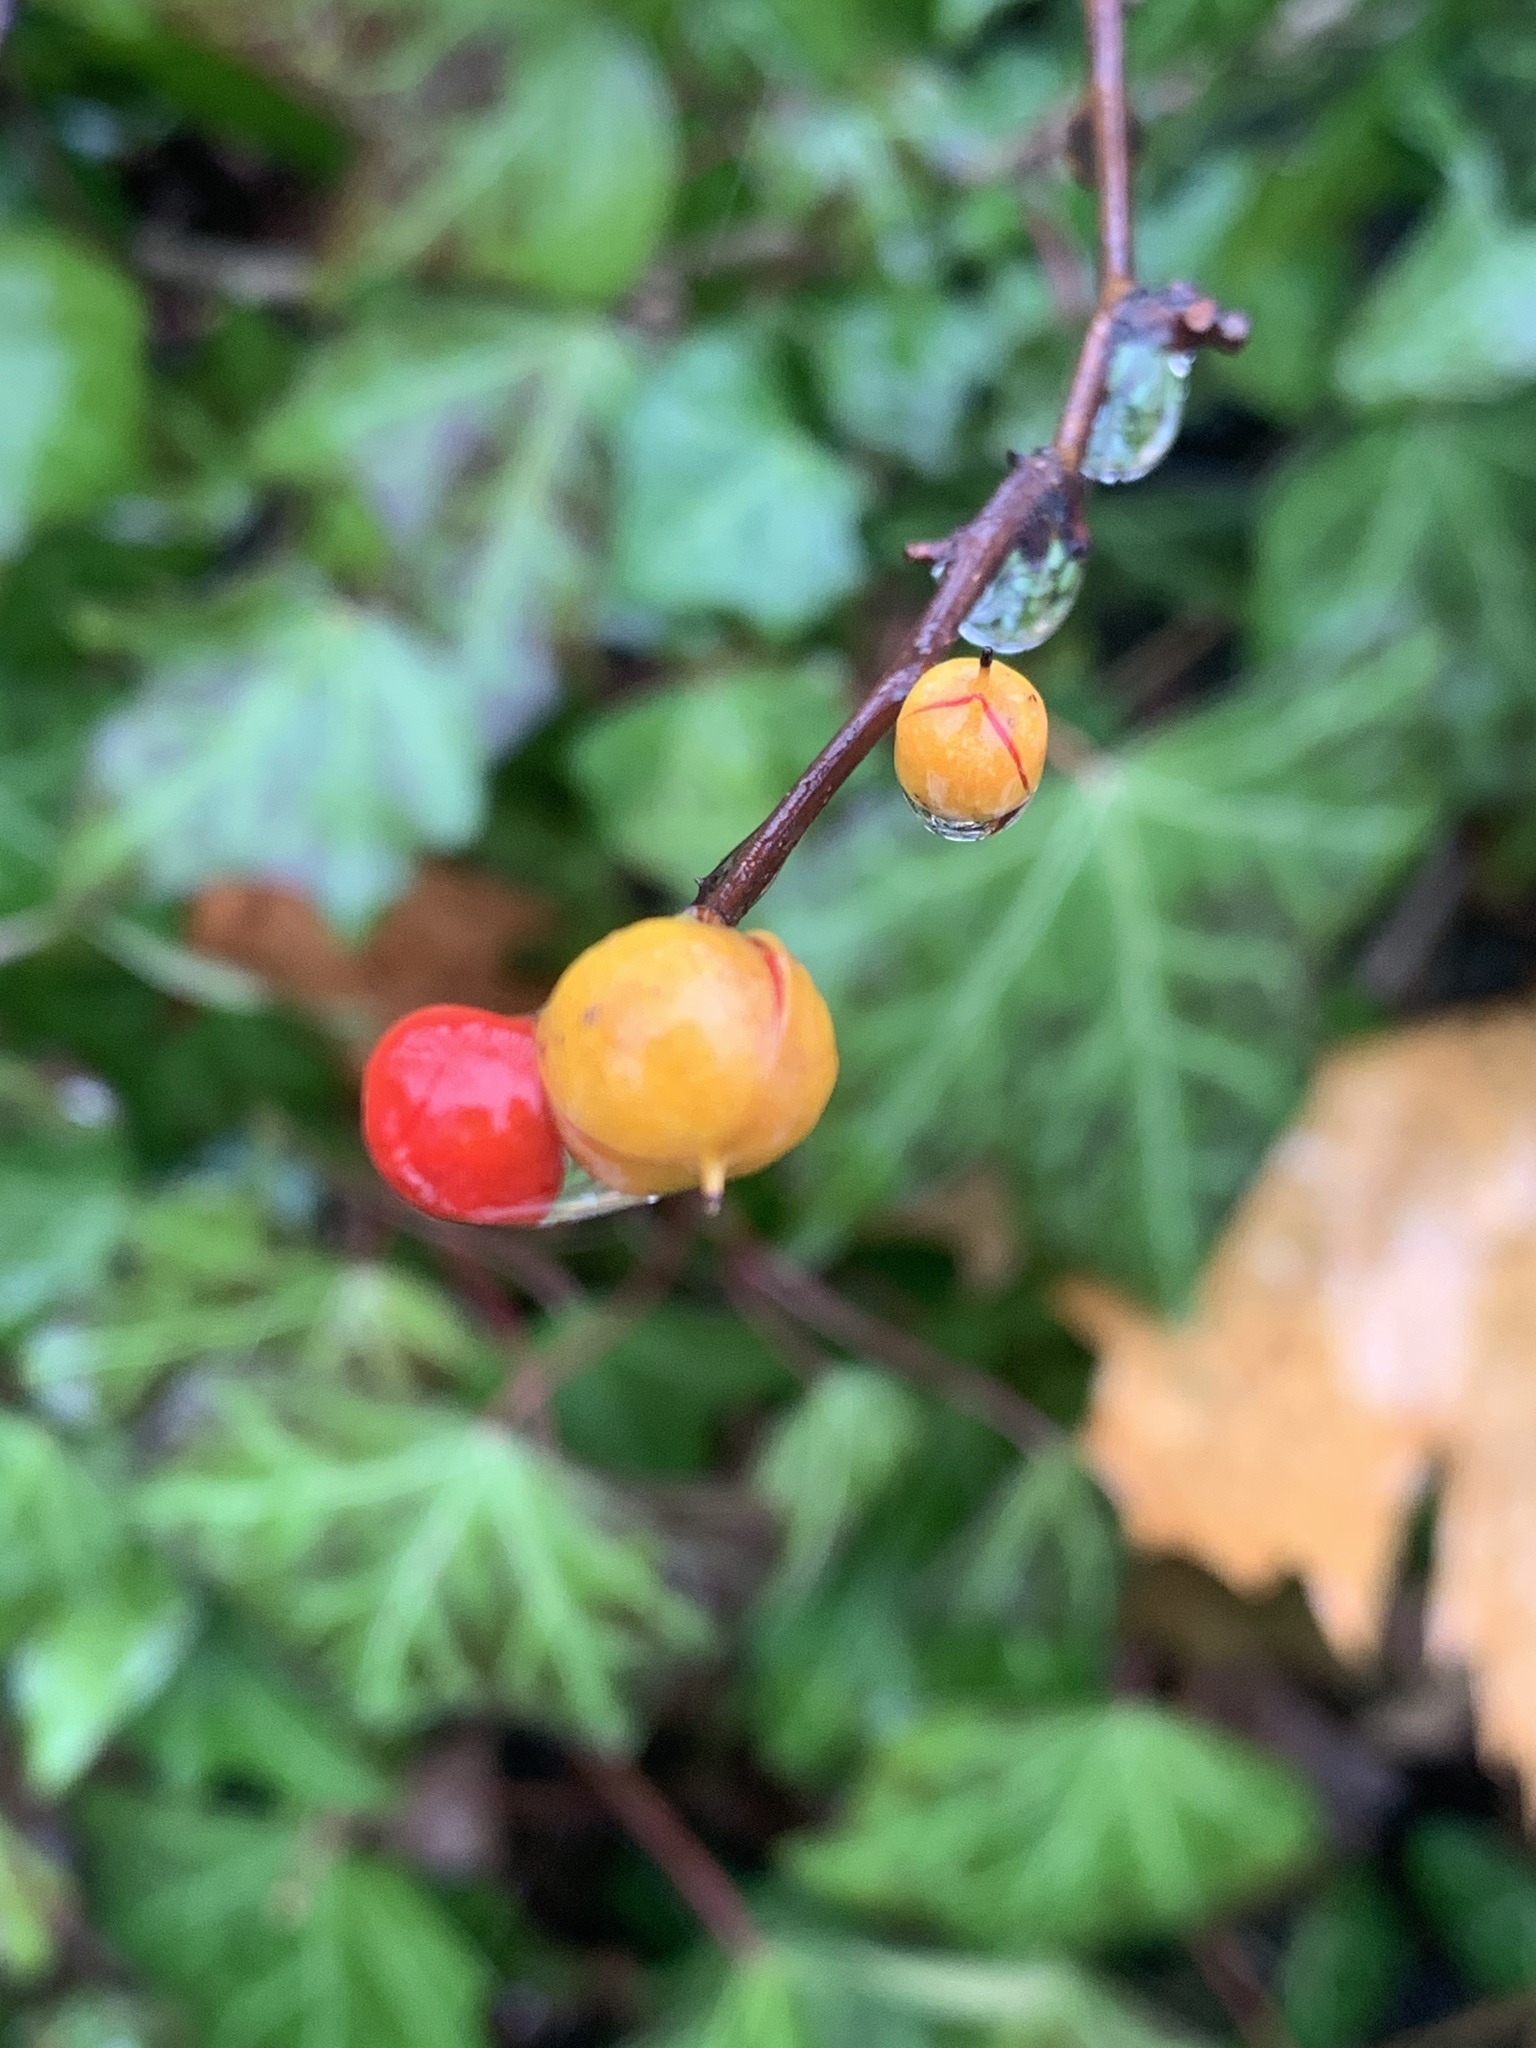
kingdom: Plantae
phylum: Tracheophyta
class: Magnoliopsida
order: Celastrales
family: Celastraceae
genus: Celastrus
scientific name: Celastrus orbiculatus
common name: Oriental bittersweet
